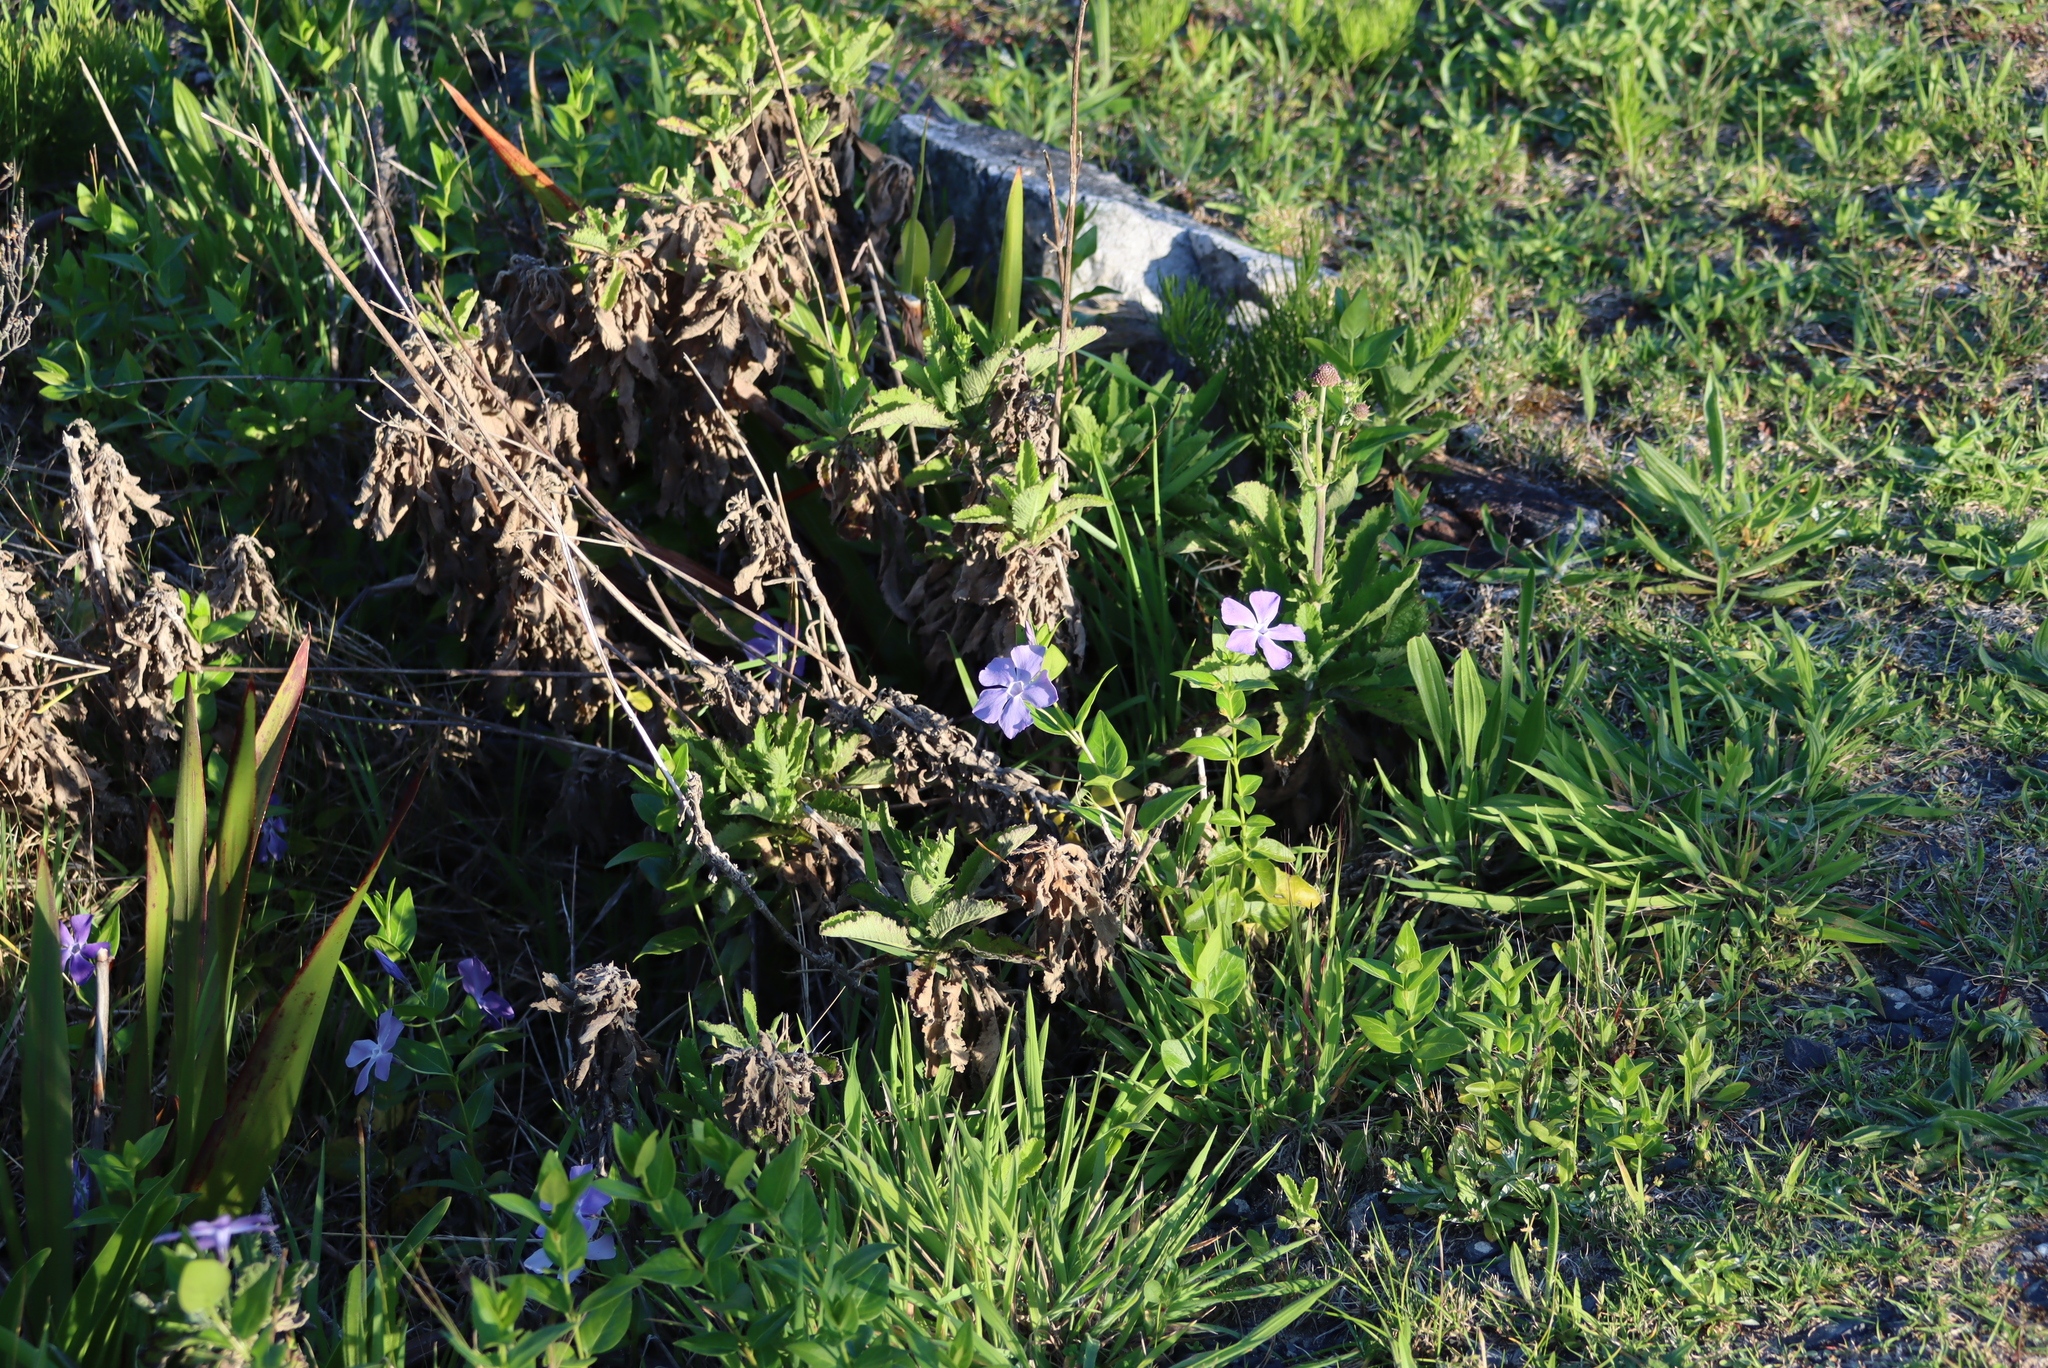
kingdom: Plantae
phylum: Tracheophyta
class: Magnoliopsida
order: Gentianales
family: Apocynaceae
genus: Vinca
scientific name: Vinca major
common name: Greater periwinkle
